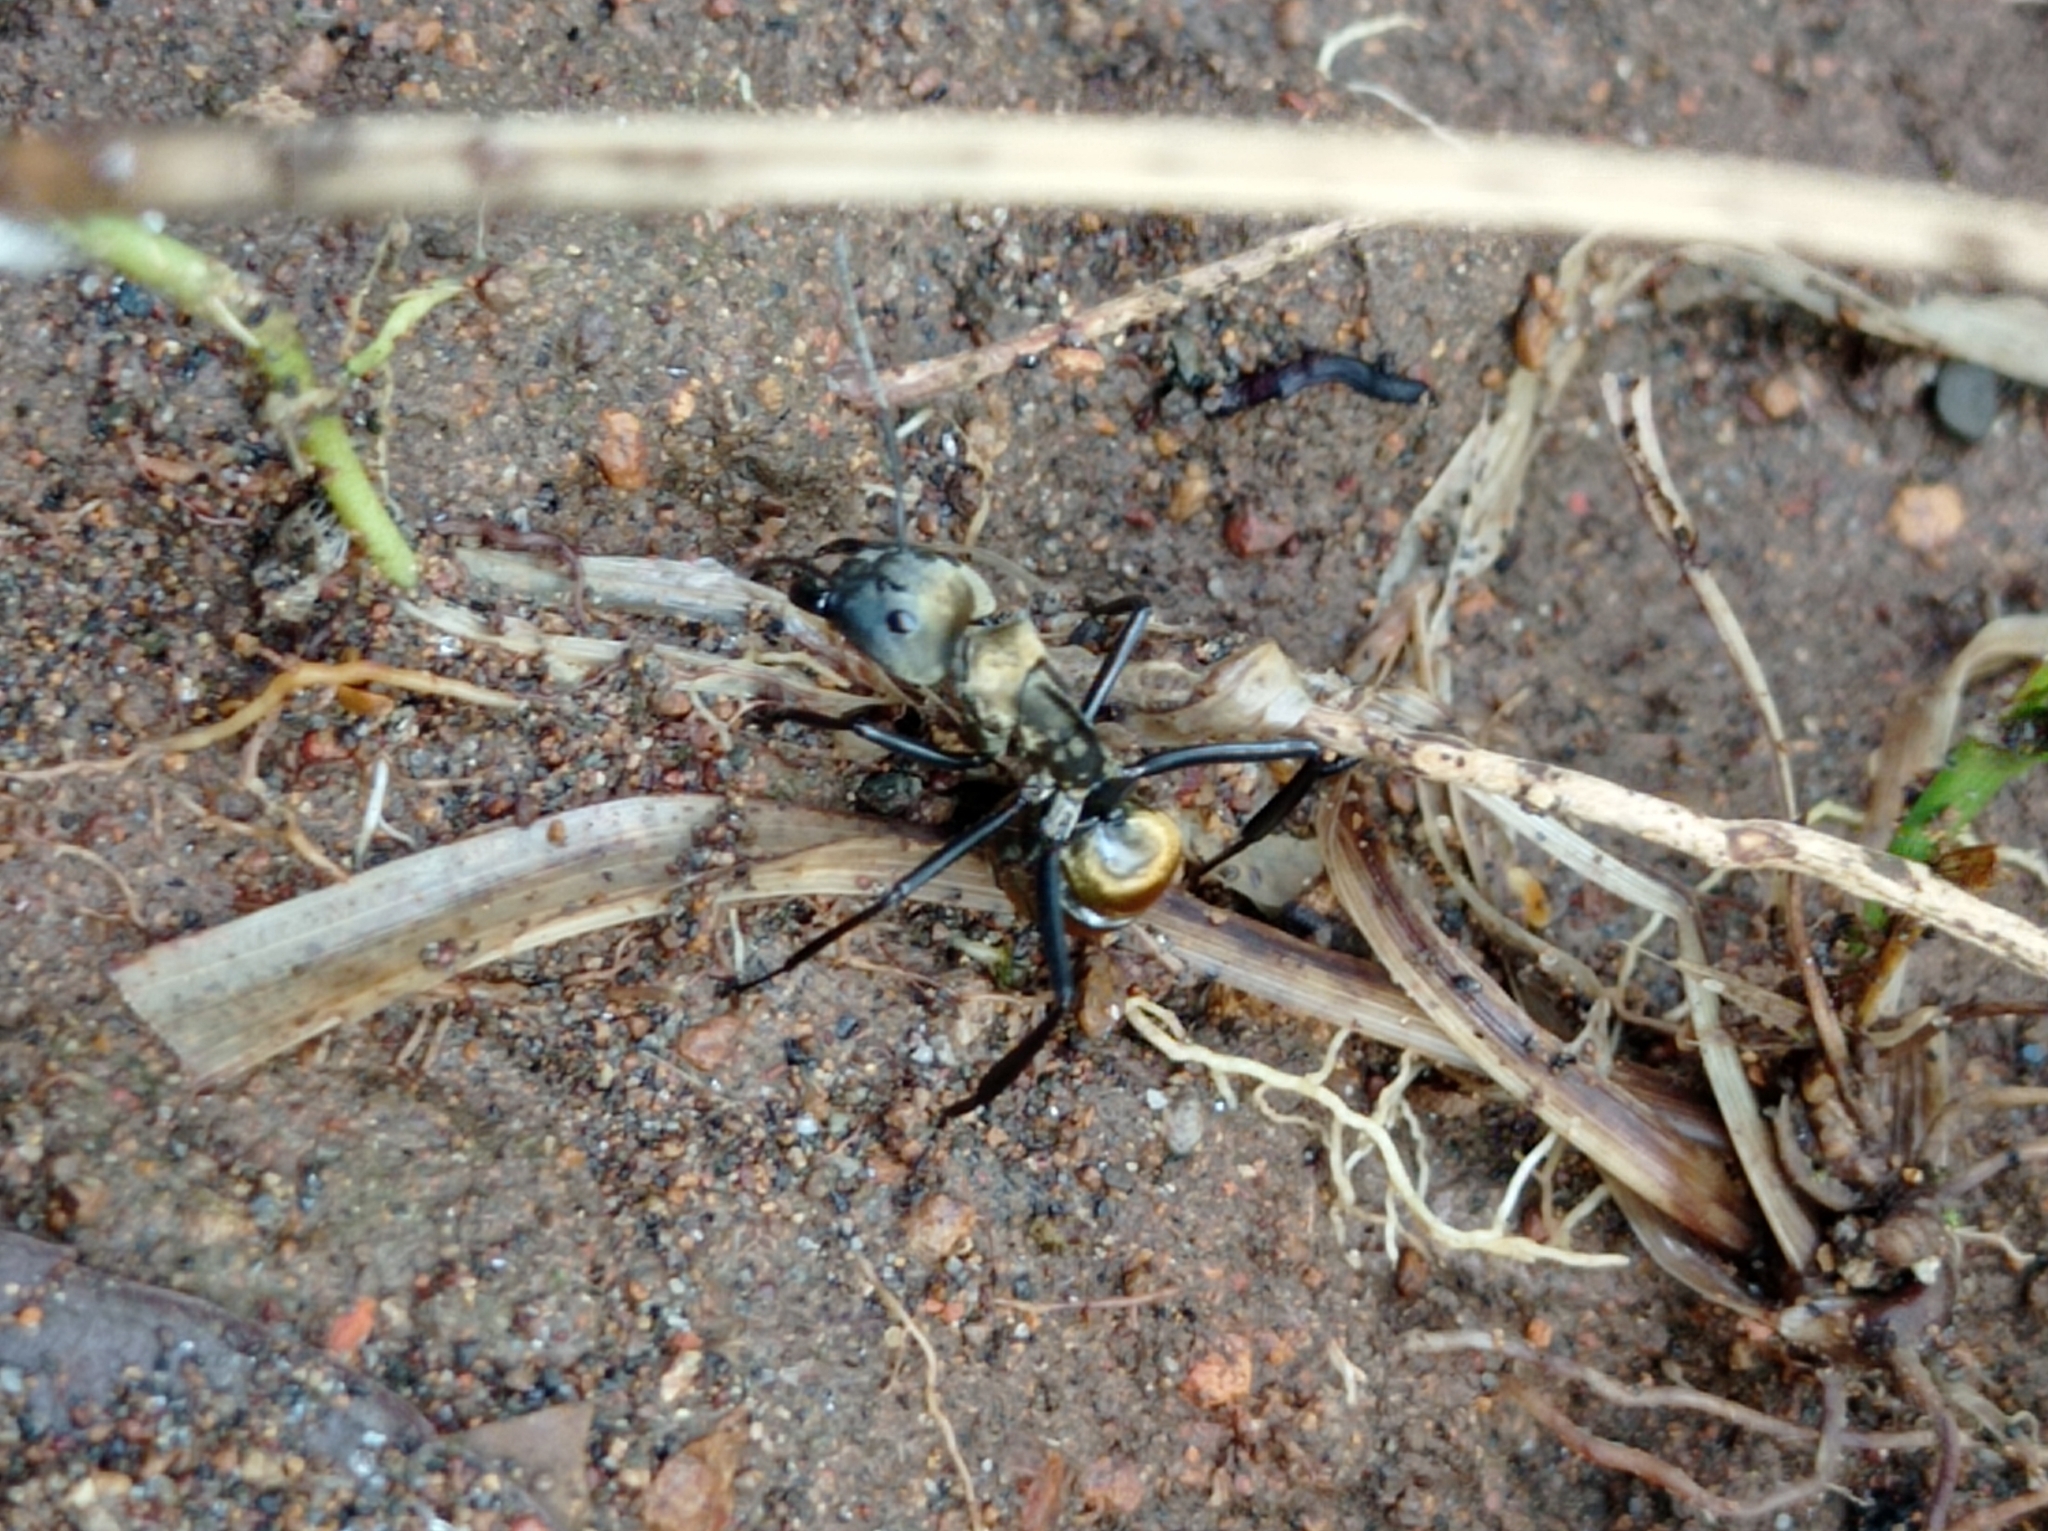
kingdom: Animalia
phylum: Arthropoda
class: Insecta
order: Hymenoptera
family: Formicidae
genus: Camponotus
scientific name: Camponotus sericeiventris
